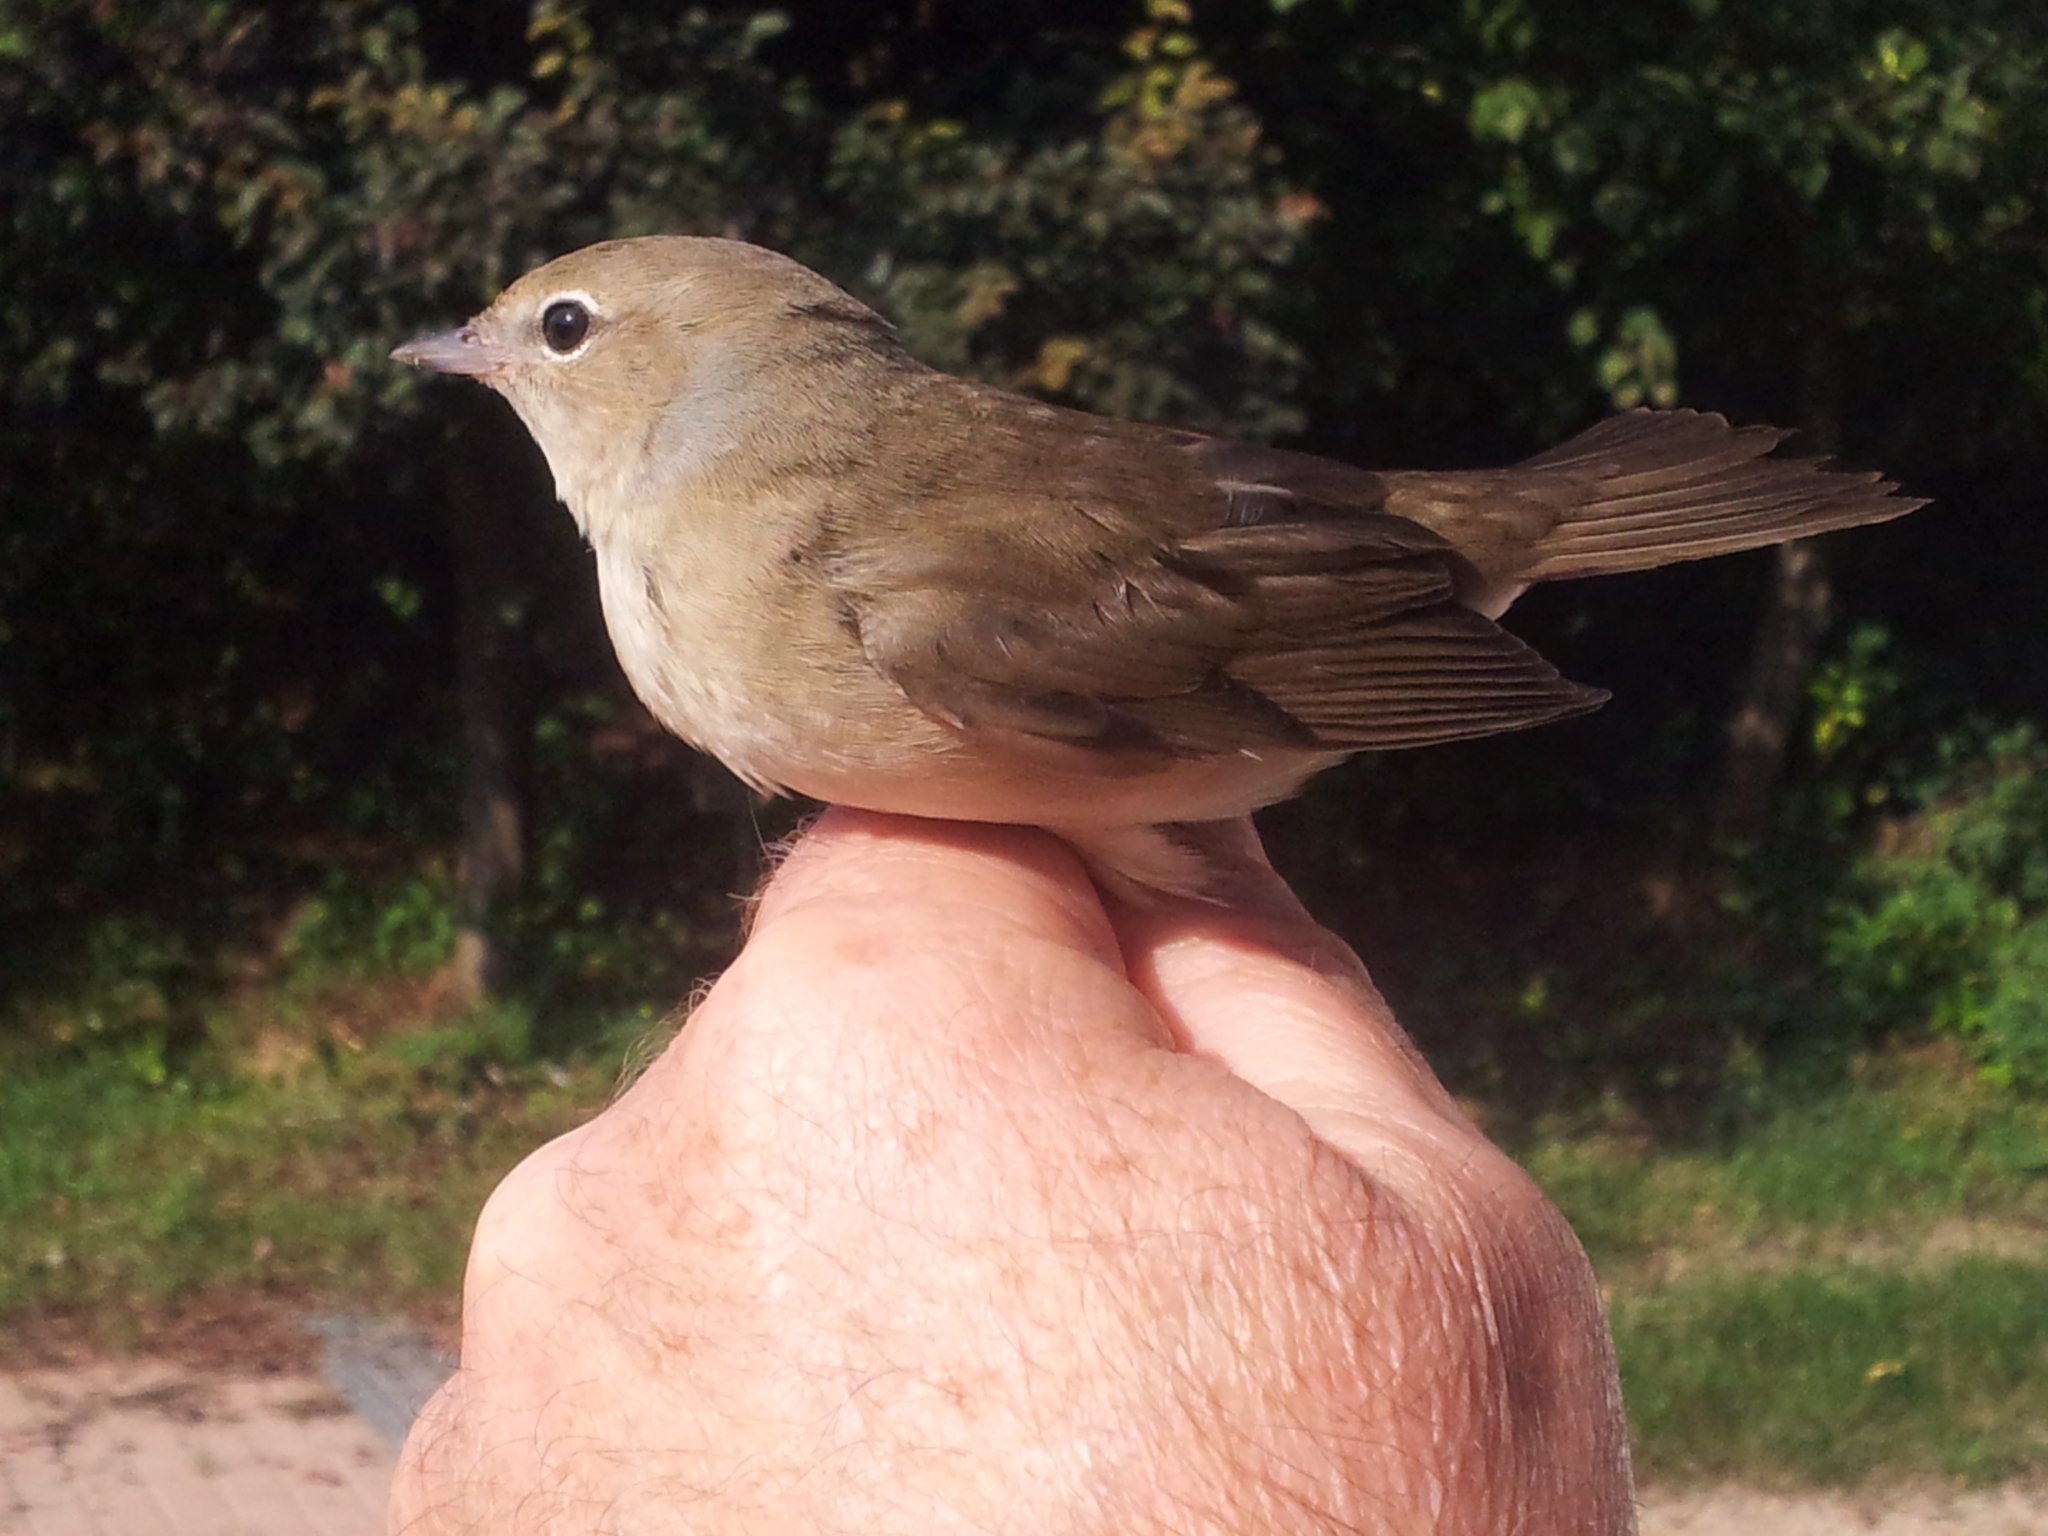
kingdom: Animalia
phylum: Chordata
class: Aves
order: Passeriformes
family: Sylviidae
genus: Sylvia
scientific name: Sylvia borin
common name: Garden warbler
